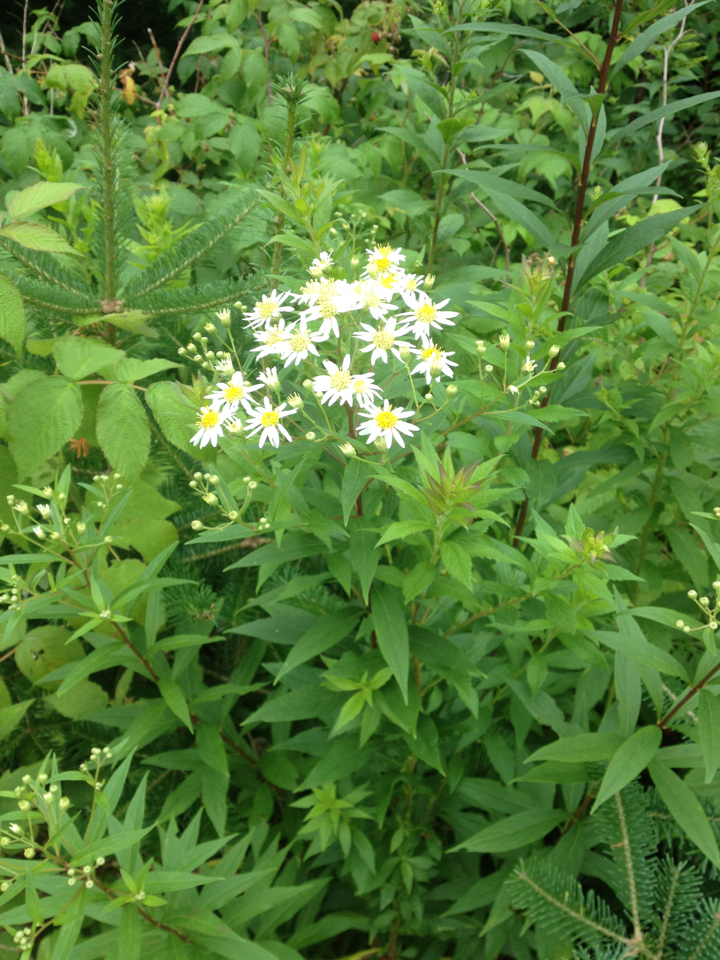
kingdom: Plantae
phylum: Tracheophyta
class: Magnoliopsida
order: Asterales
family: Asteraceae
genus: Doellingeria
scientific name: Doellingeria umbellata
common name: Flat-top white aster
